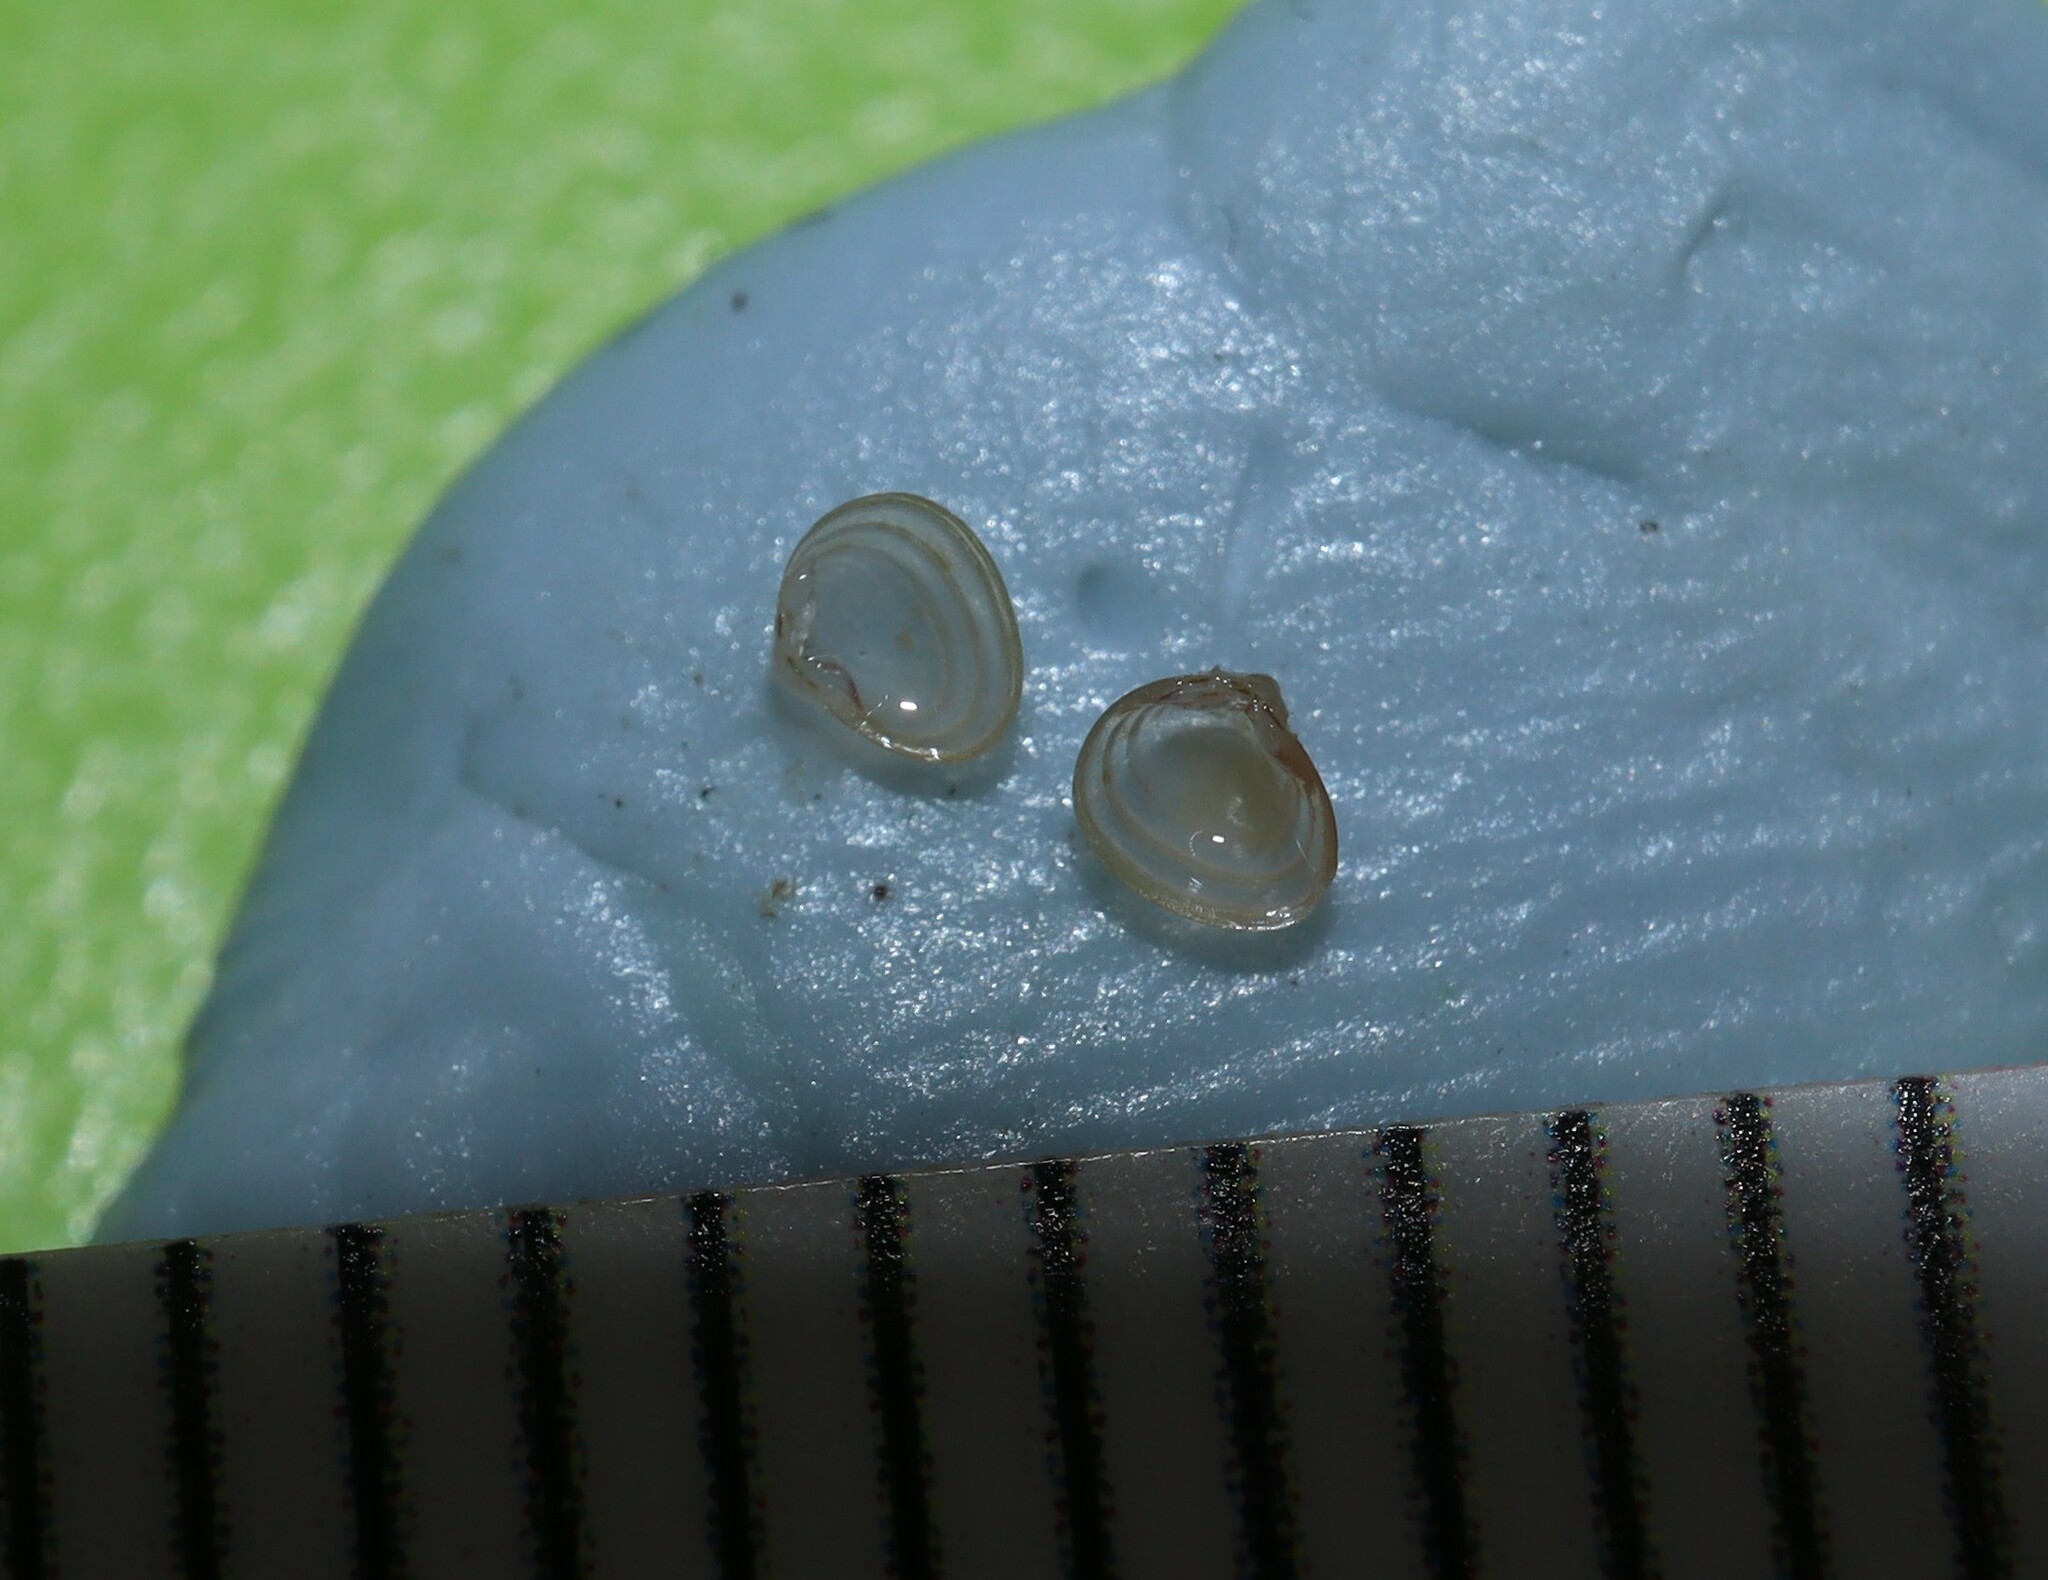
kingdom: Animalia
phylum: Mollusca
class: Bivalvia
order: Galeommatida
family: Lasaeidae
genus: Lasaea
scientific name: Lasaea australis
